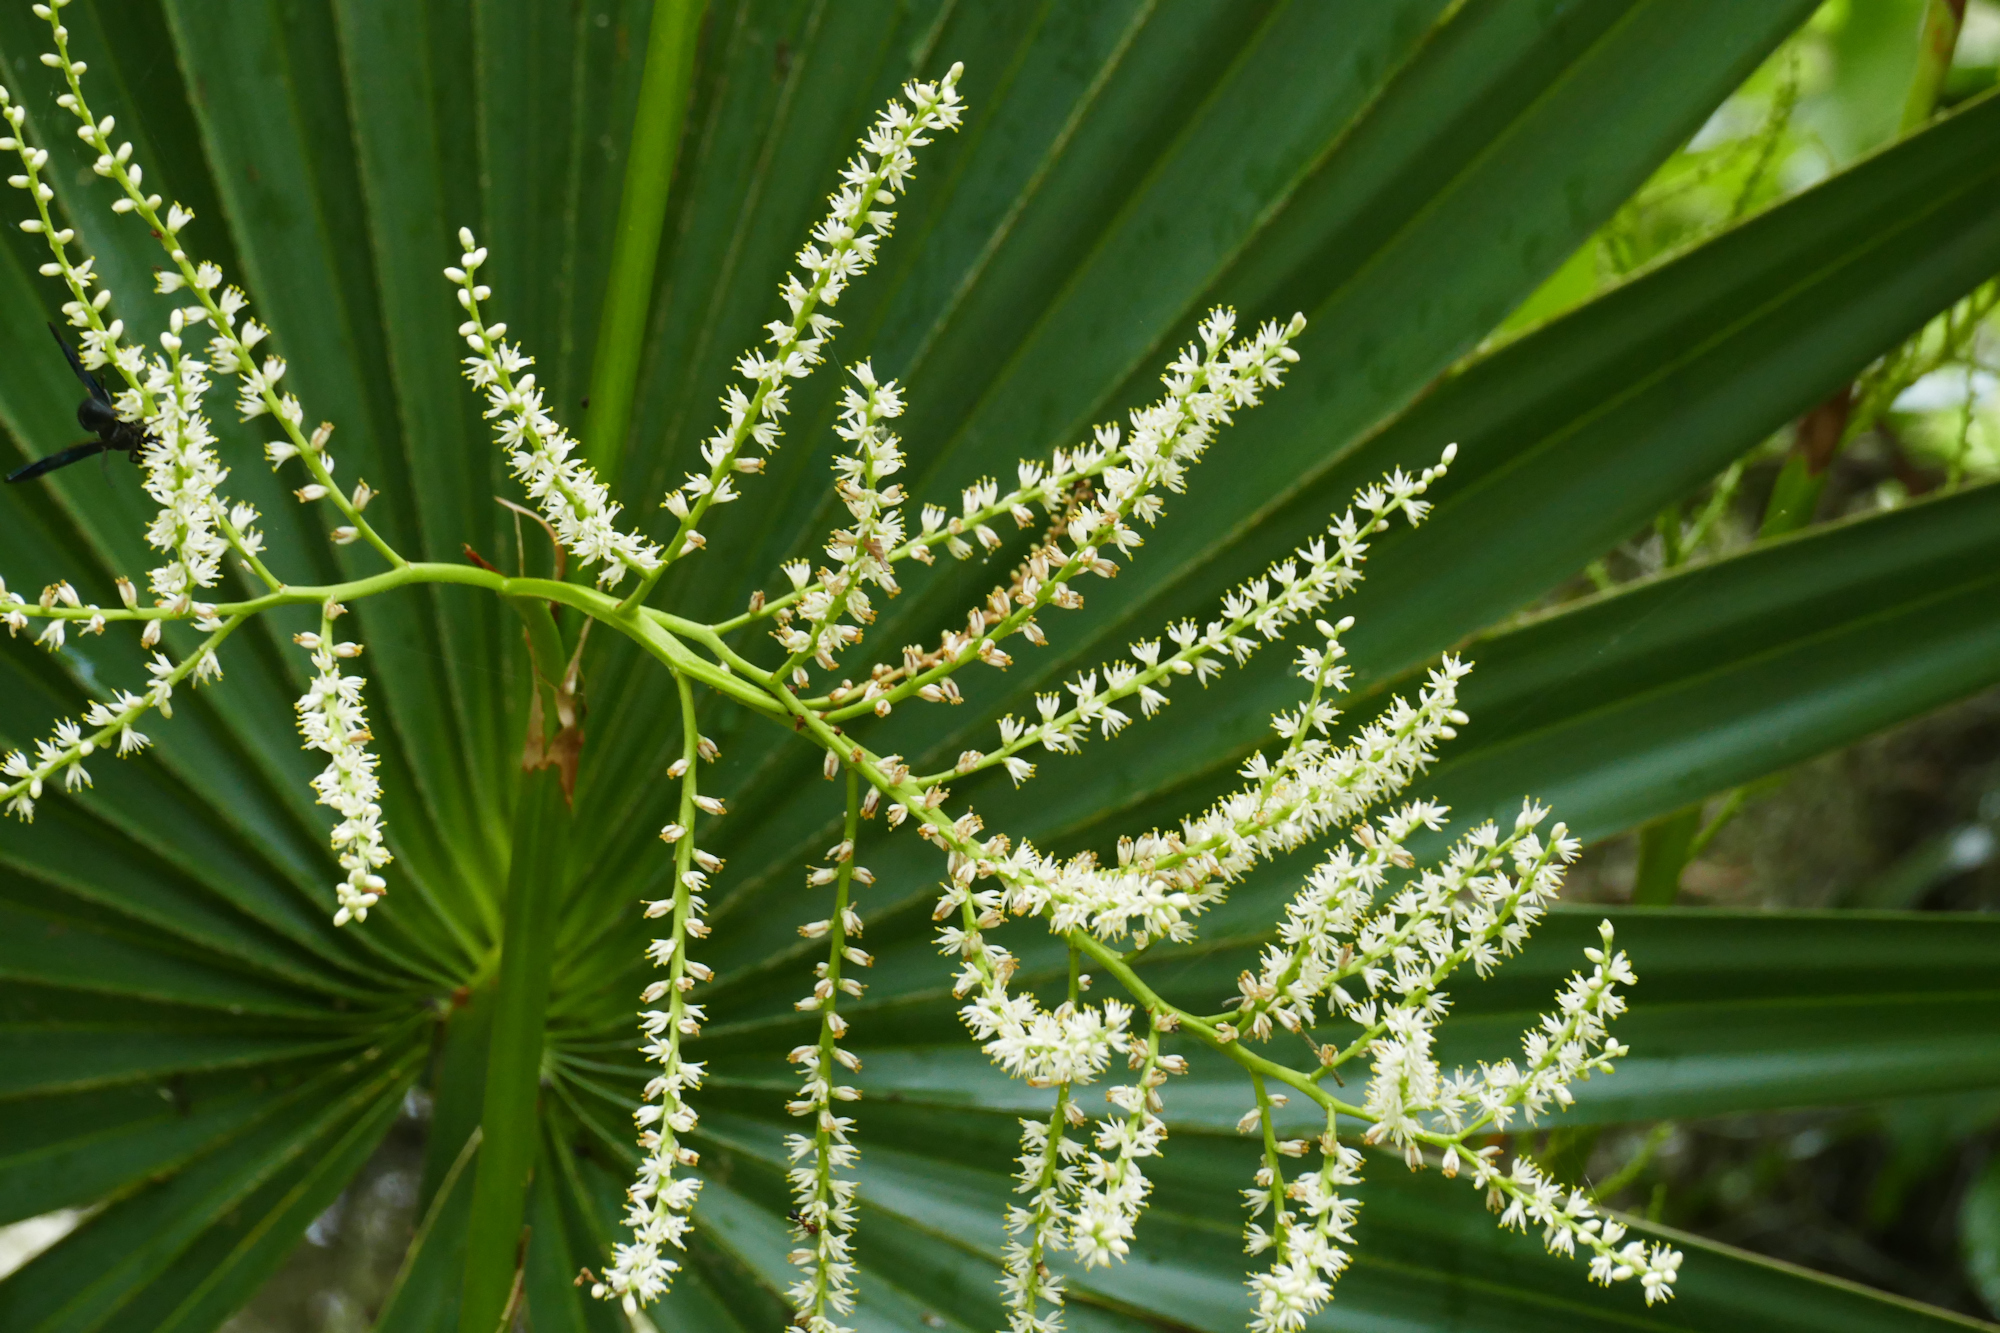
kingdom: Plantae
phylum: Tracheophyta
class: Liliopsida
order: Arecales
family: Arecaceae
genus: Sabal
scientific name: Sabal minor
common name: Dwarf palmetto
